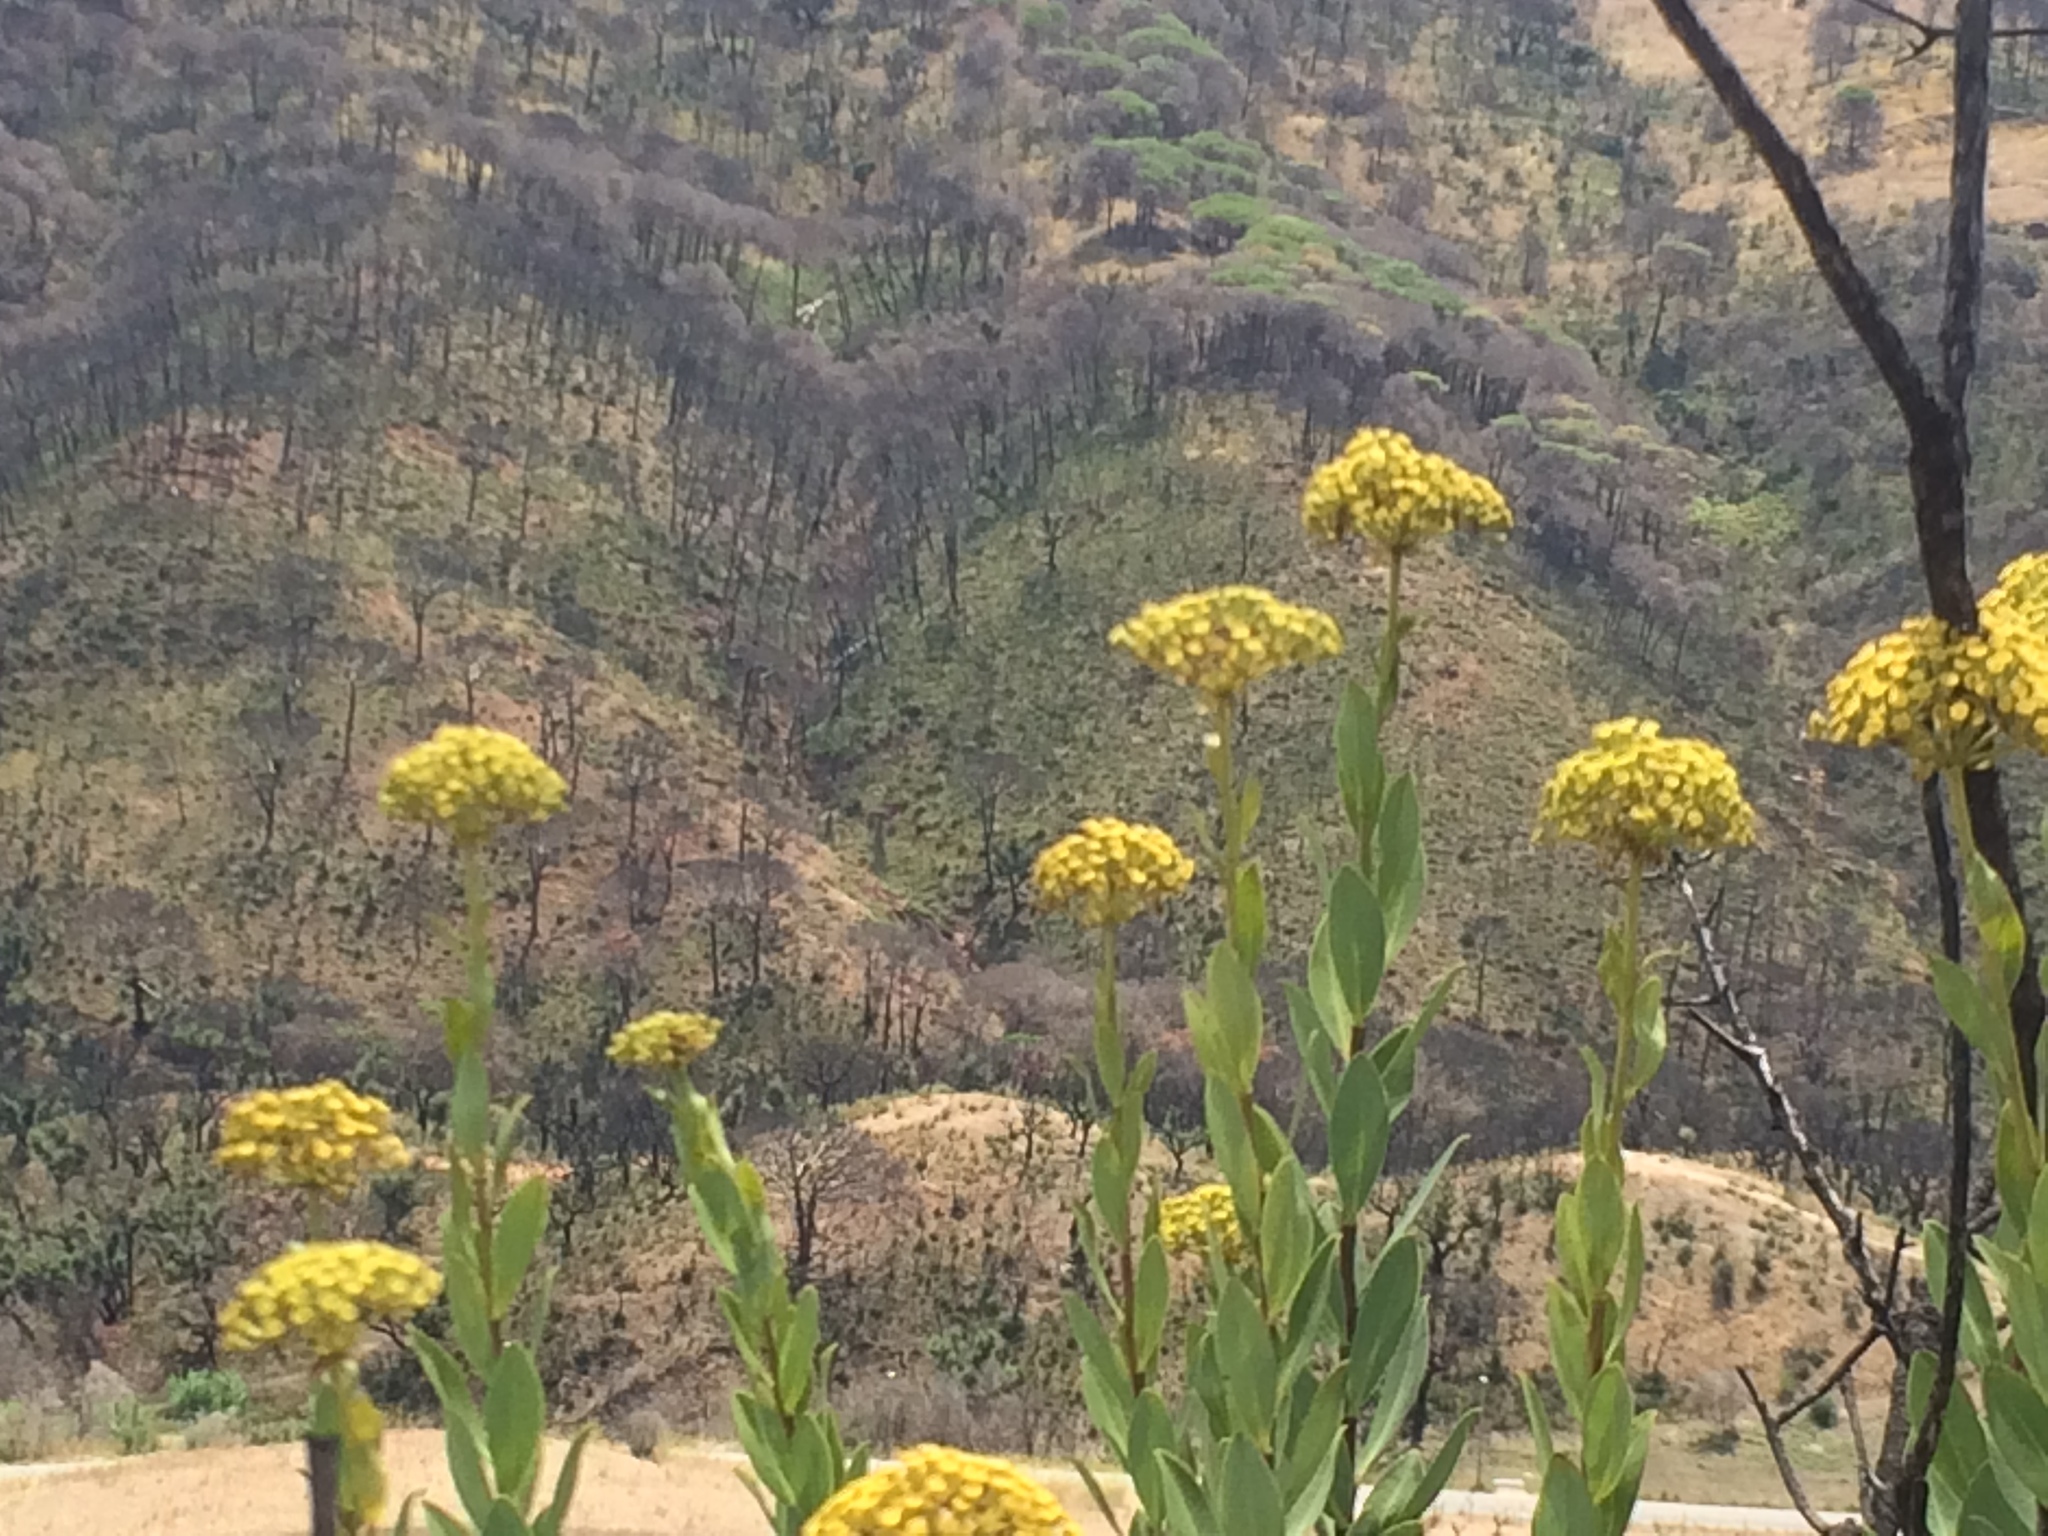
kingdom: Plantae
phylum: Tracheophyta
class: Magnoliopsida
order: Apiales
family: Apiaceae
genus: Bupleurum
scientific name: Bupleurum fruticosum
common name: Shrubby hare's-ear
